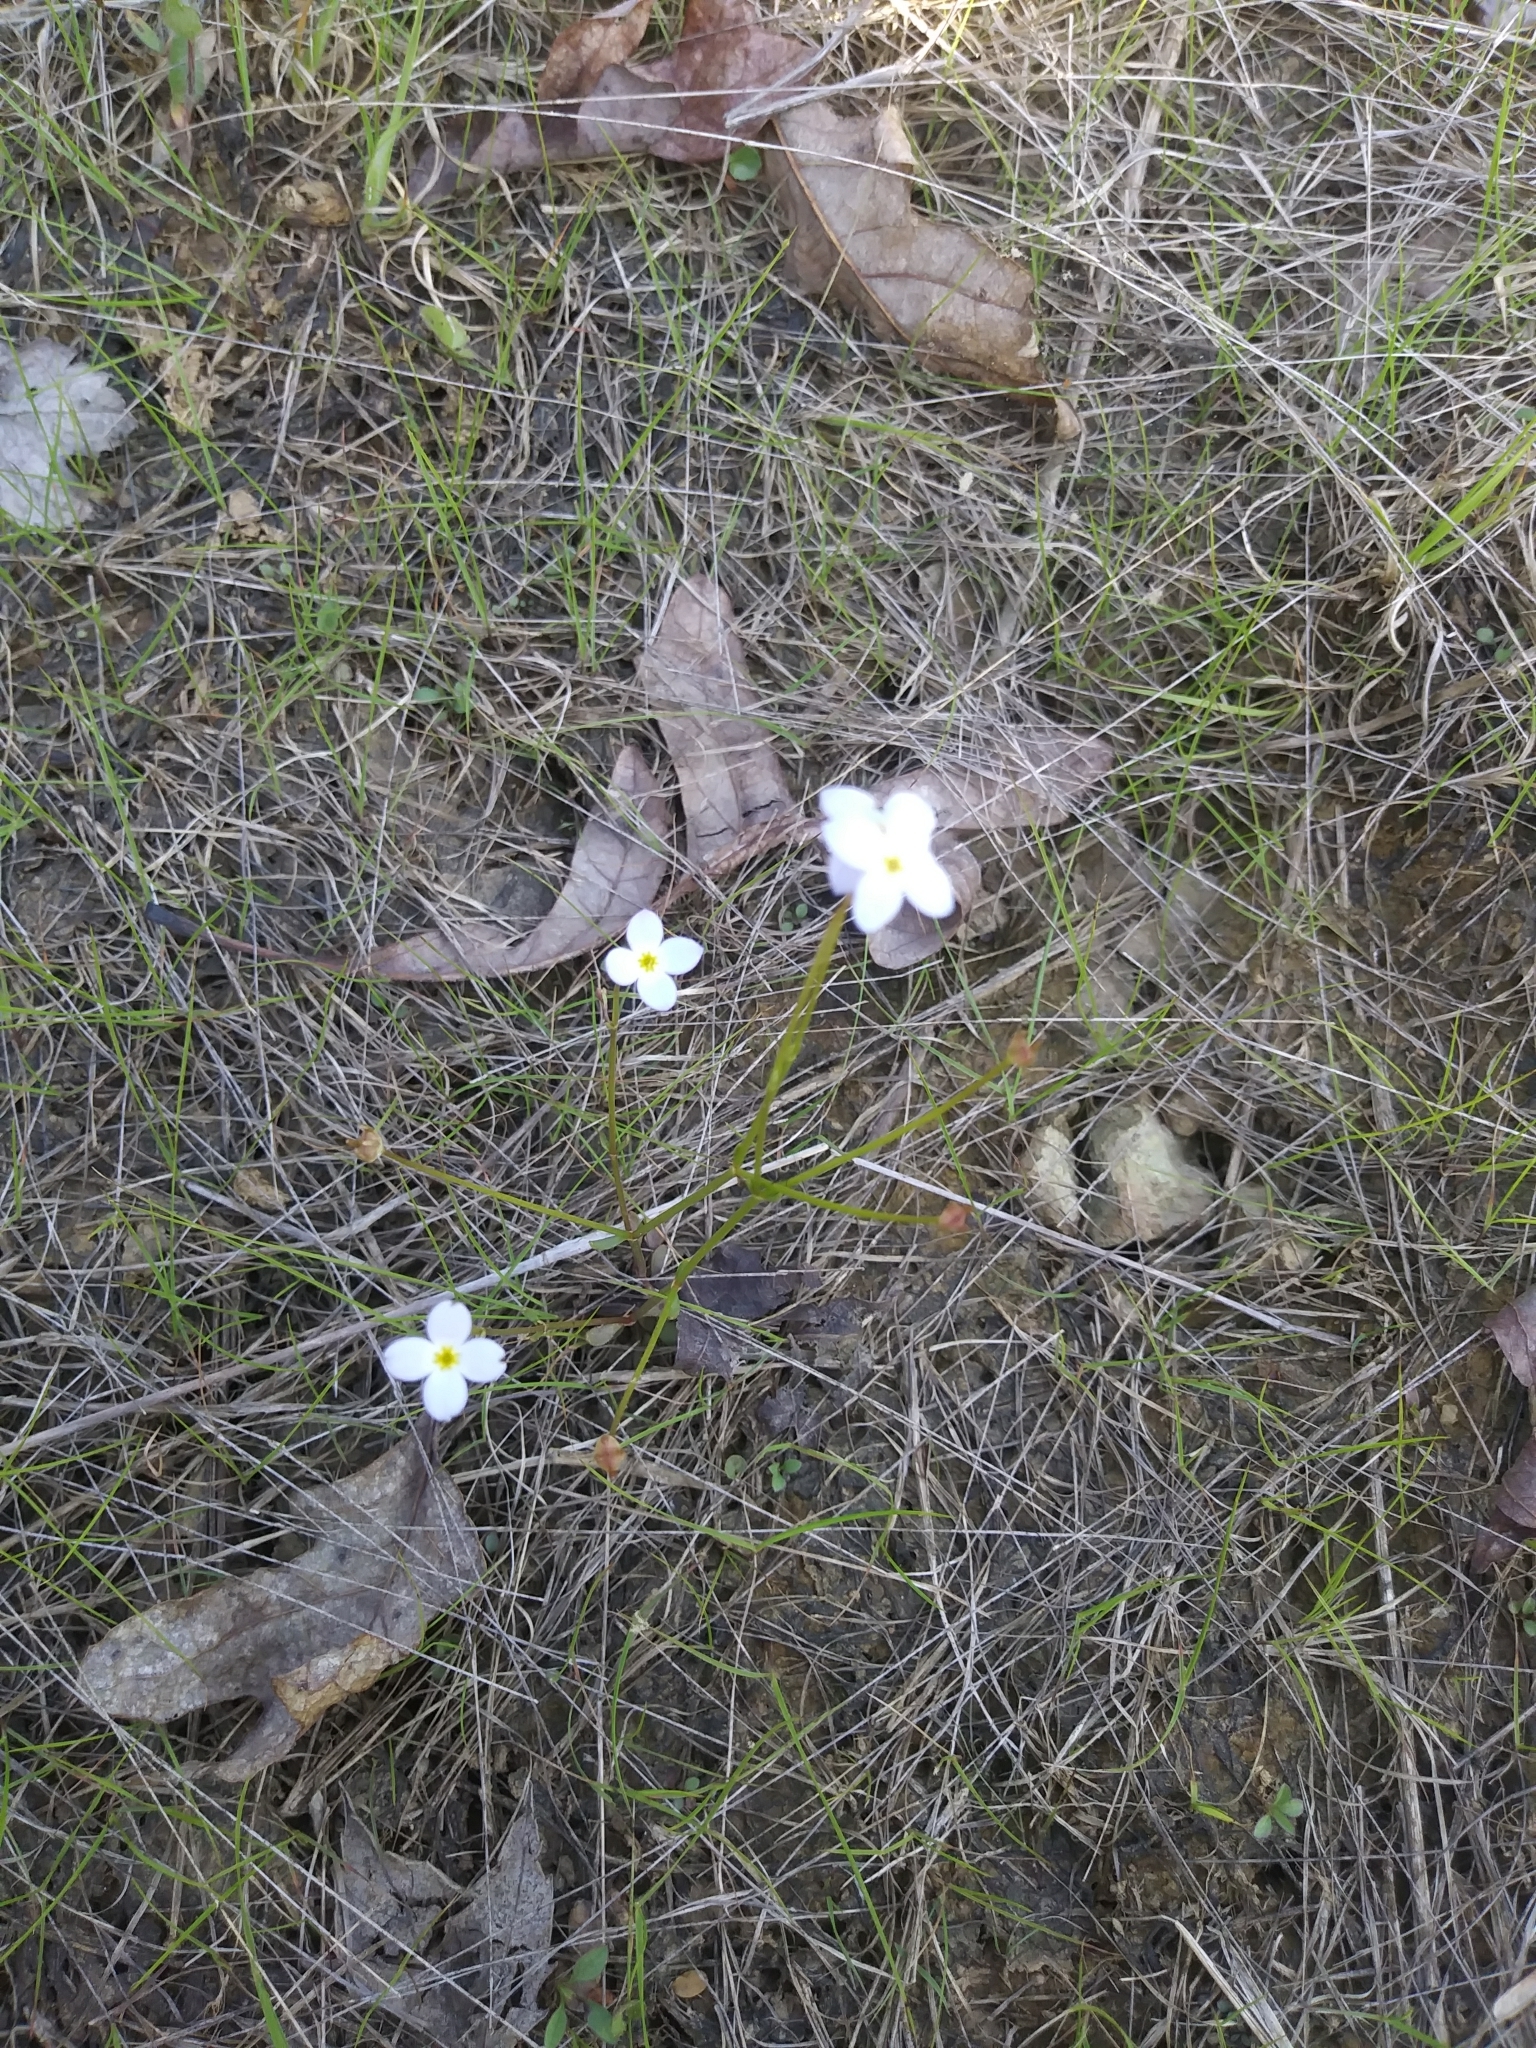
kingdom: Plantae
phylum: Tracheophyta
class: Magnoliopsida
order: Gentianales
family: Rubiaceae
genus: Houstonia
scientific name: Houstonia caerulea
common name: Bluets
